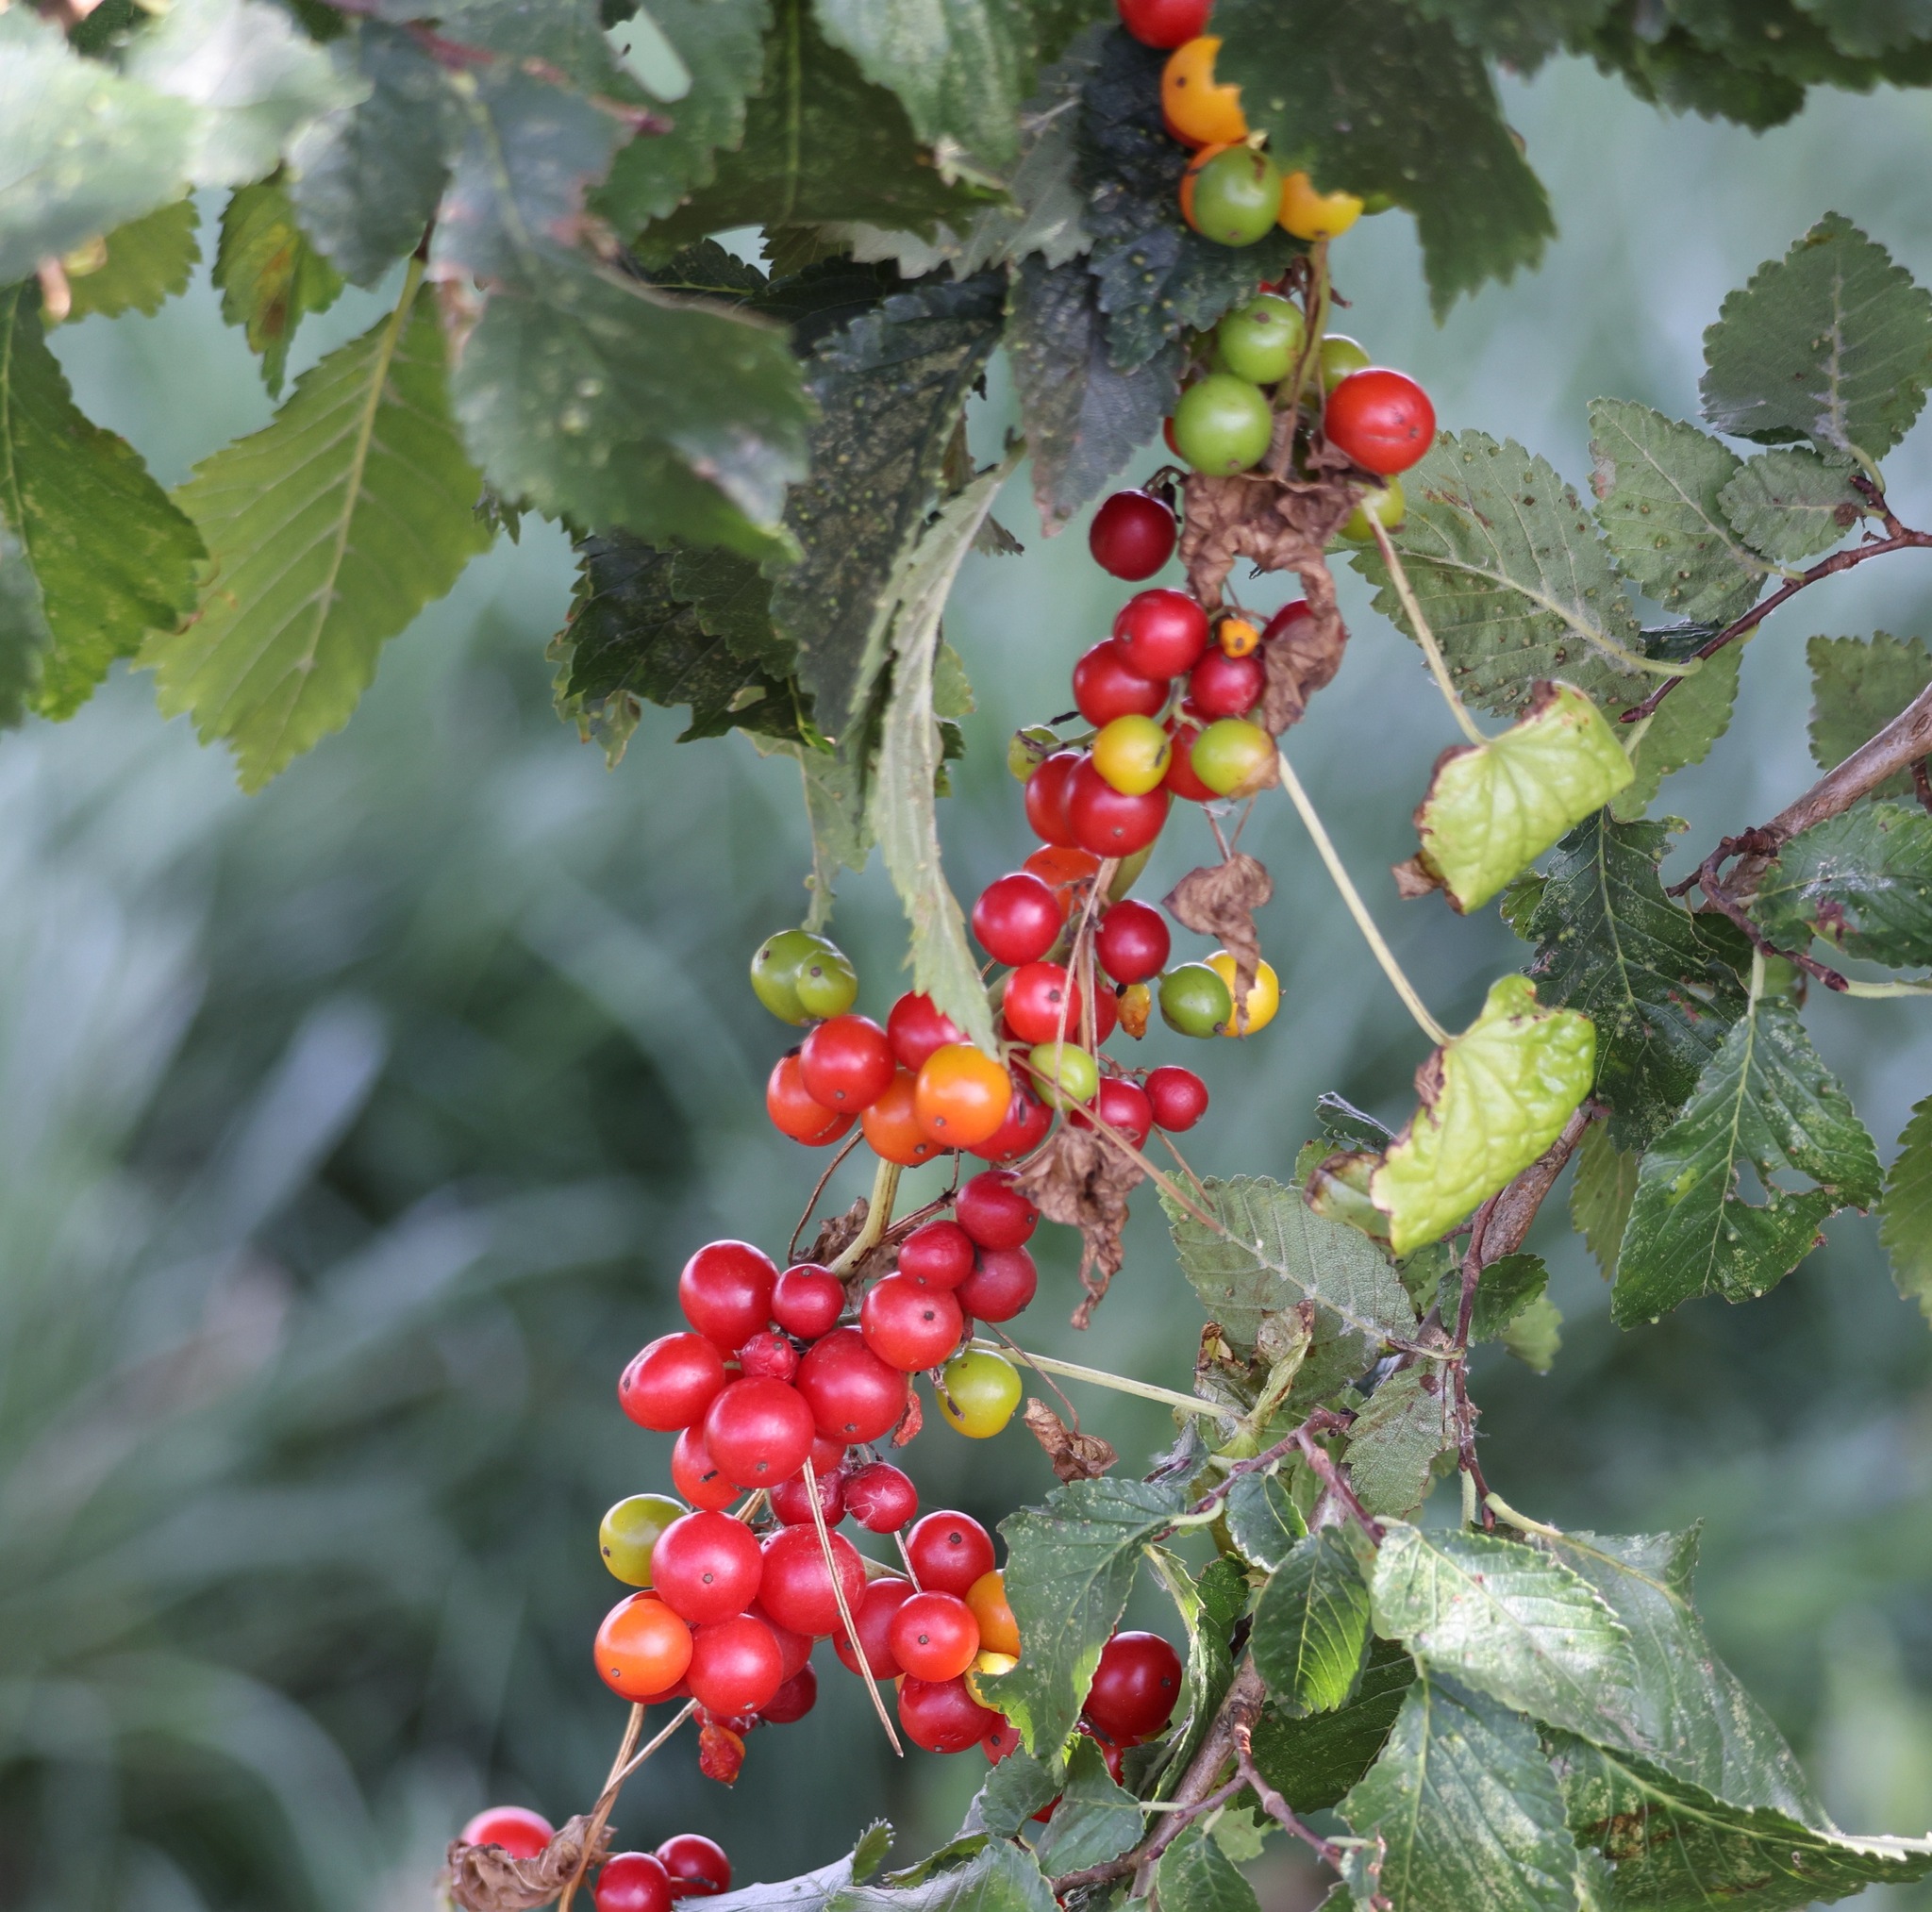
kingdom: Plantae
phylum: Tracheophyta
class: Liliopsida
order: Dioscoreales
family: Dioscoreaceae
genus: Dioscorea
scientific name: Dioscorea communis
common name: Black-bindweed
